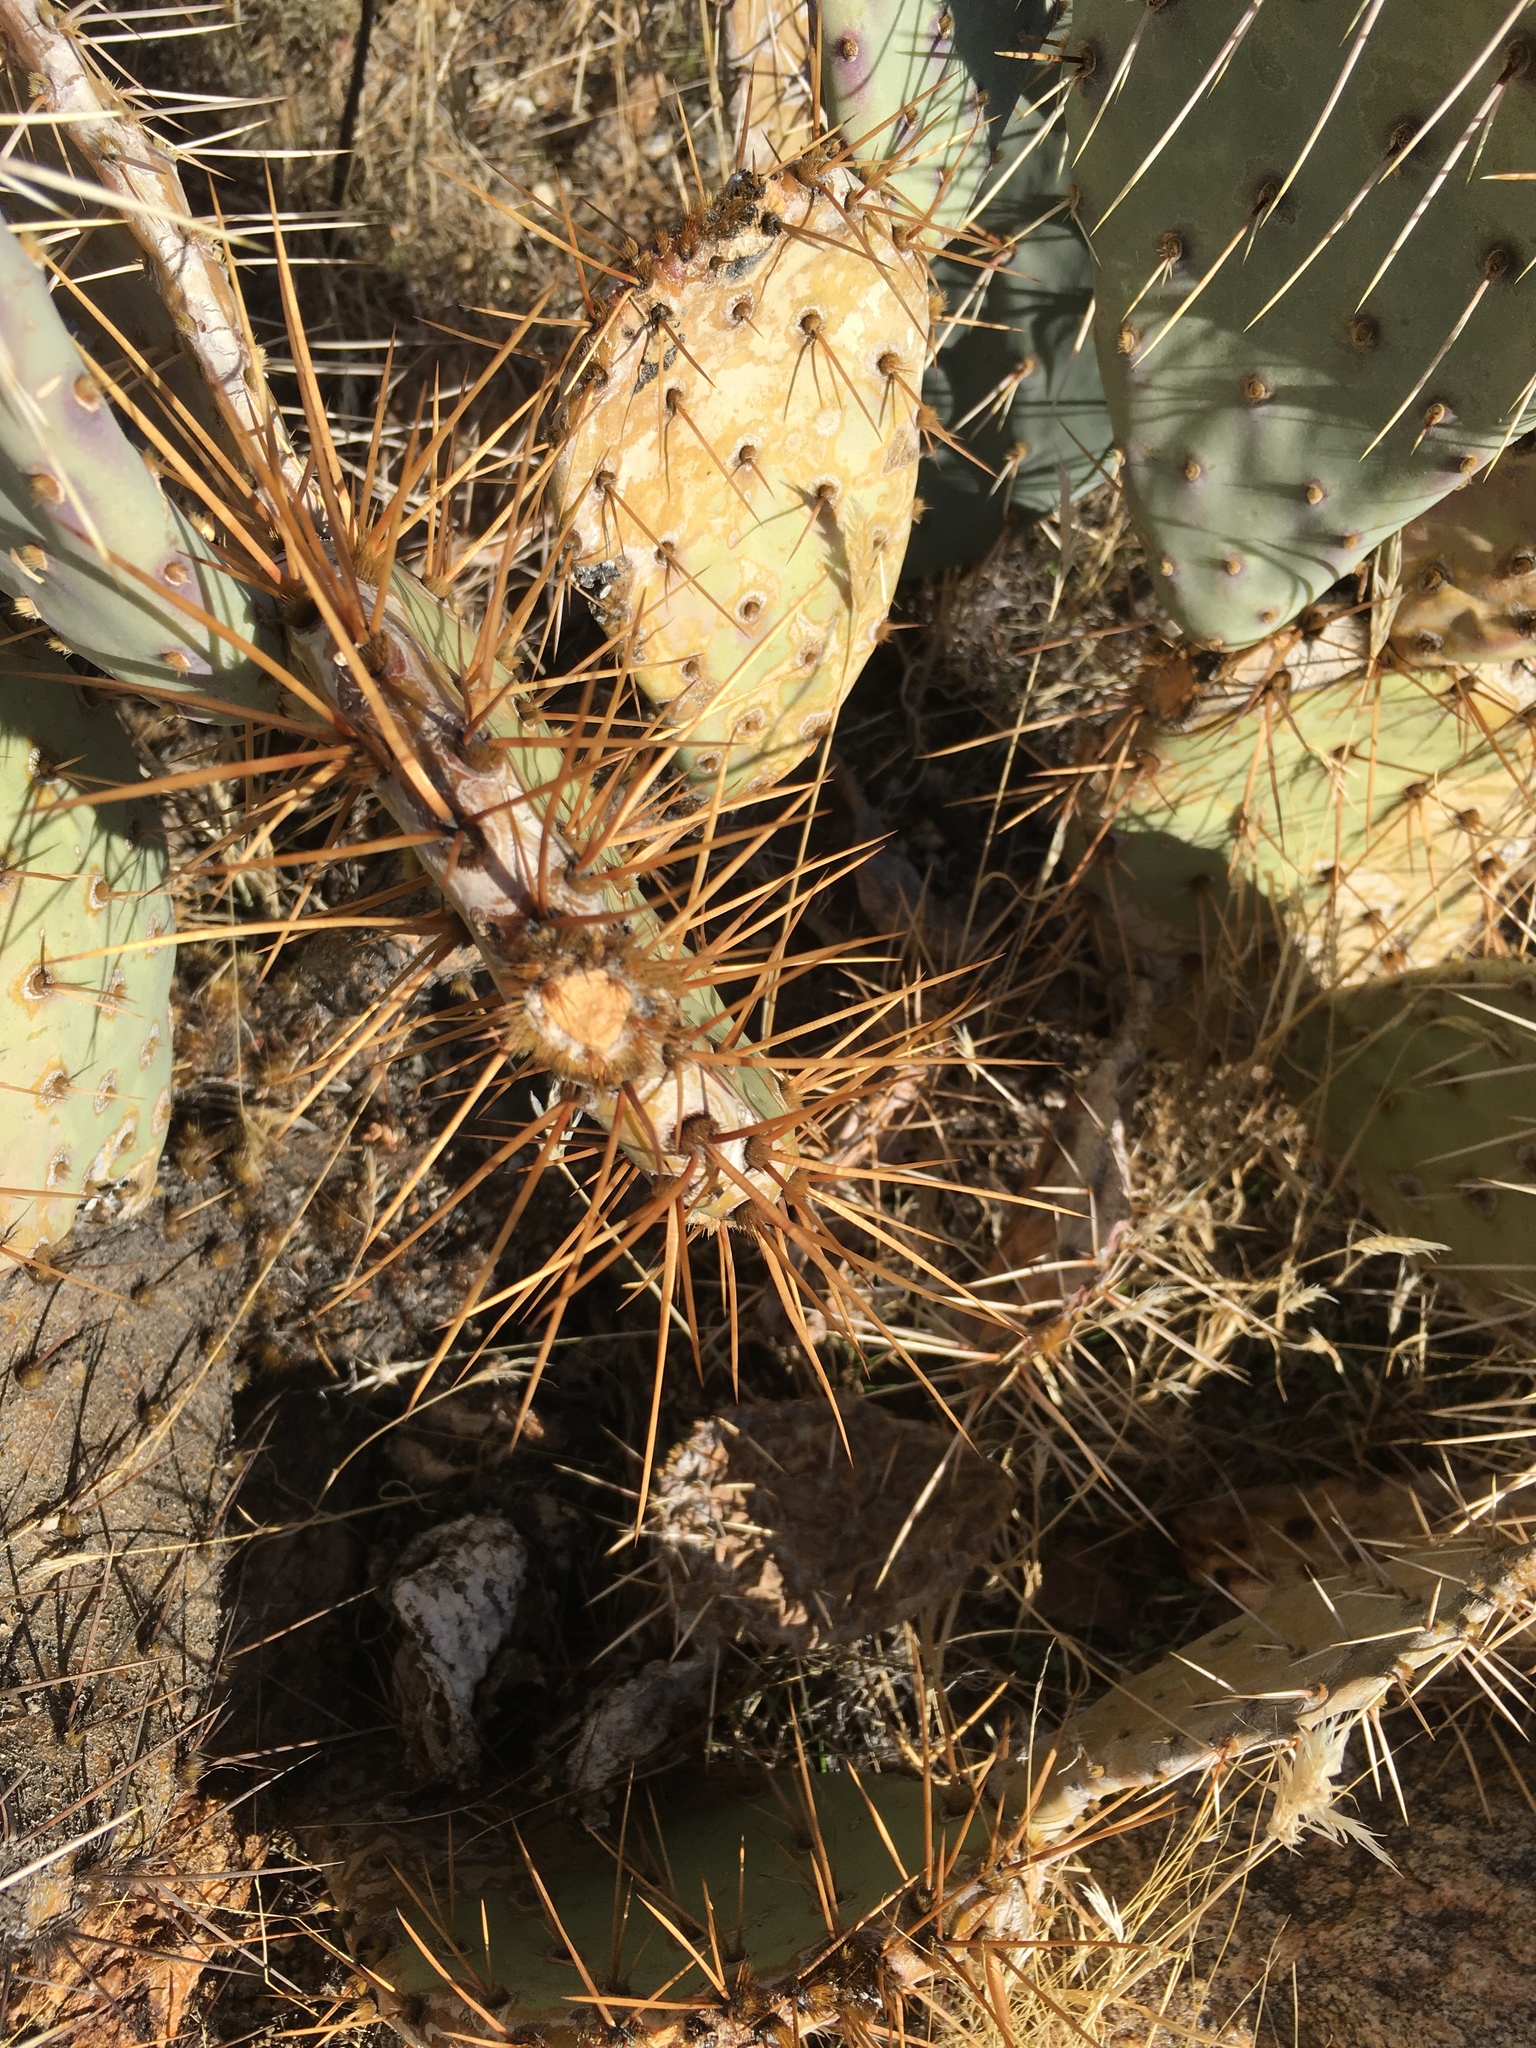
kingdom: Plantae
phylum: Tracheophyta
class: Magnoliopsida
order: Caryophyllales
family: Cactaceae
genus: Opuntia
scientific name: Opuntia phaeacantha
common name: New mexico prickly-pear
